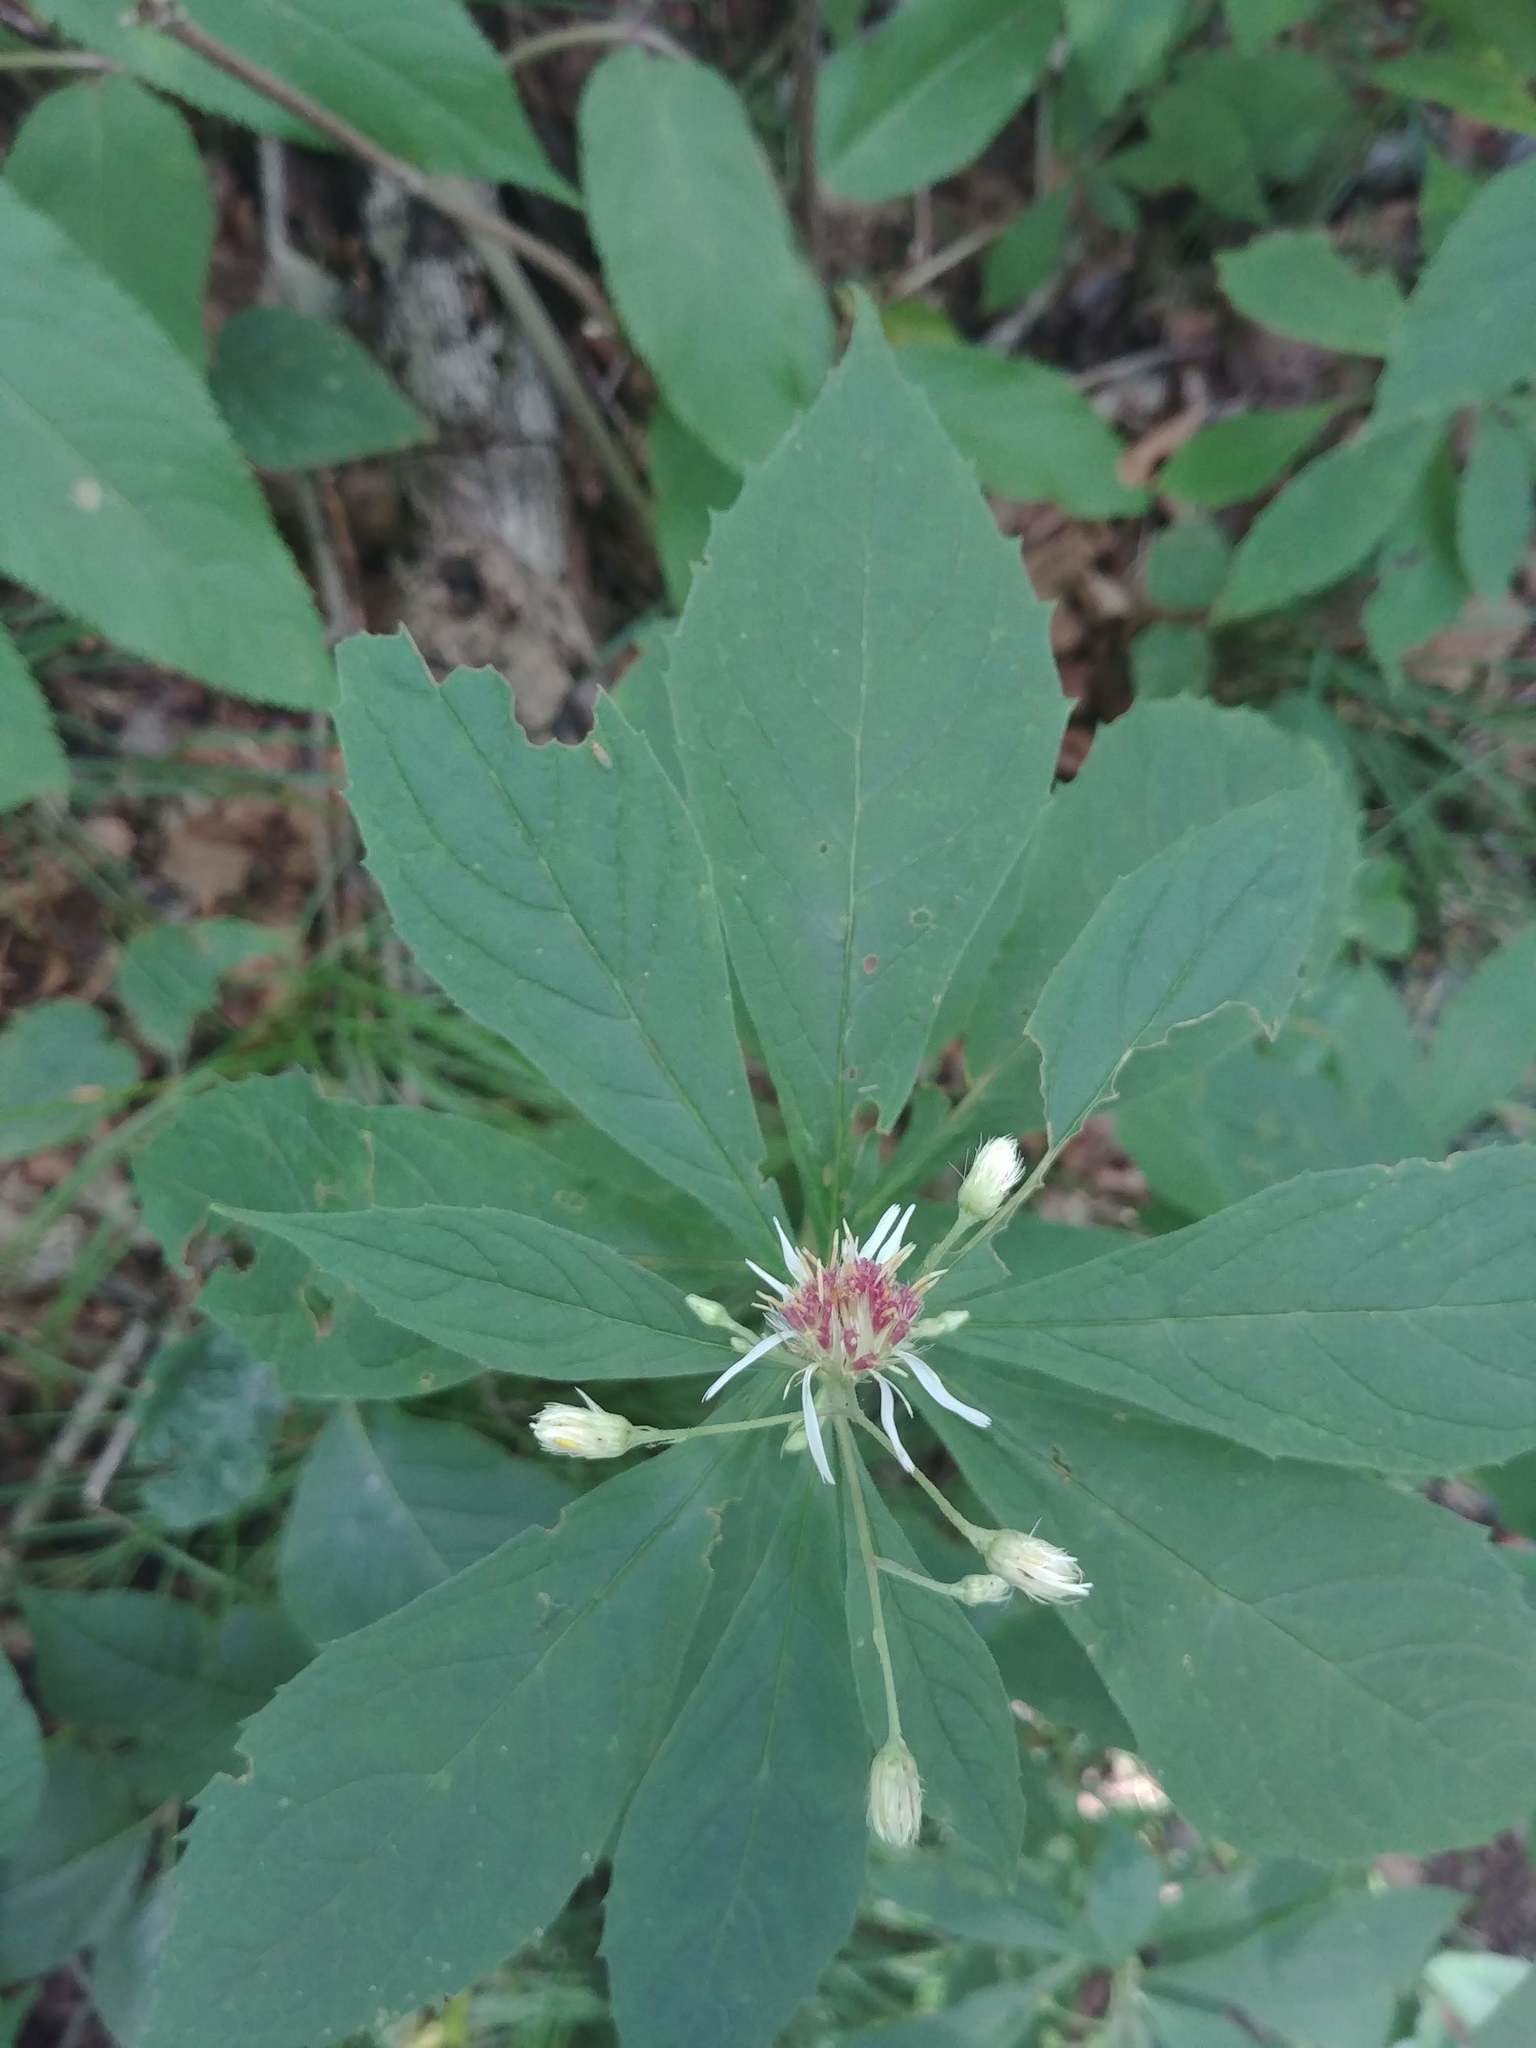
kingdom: Plantae
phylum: Tracheophyta
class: Magnoliopsida
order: Asterales
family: Asteraceae
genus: Oclemena
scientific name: Oclemena acuminata
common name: Mountain aster
